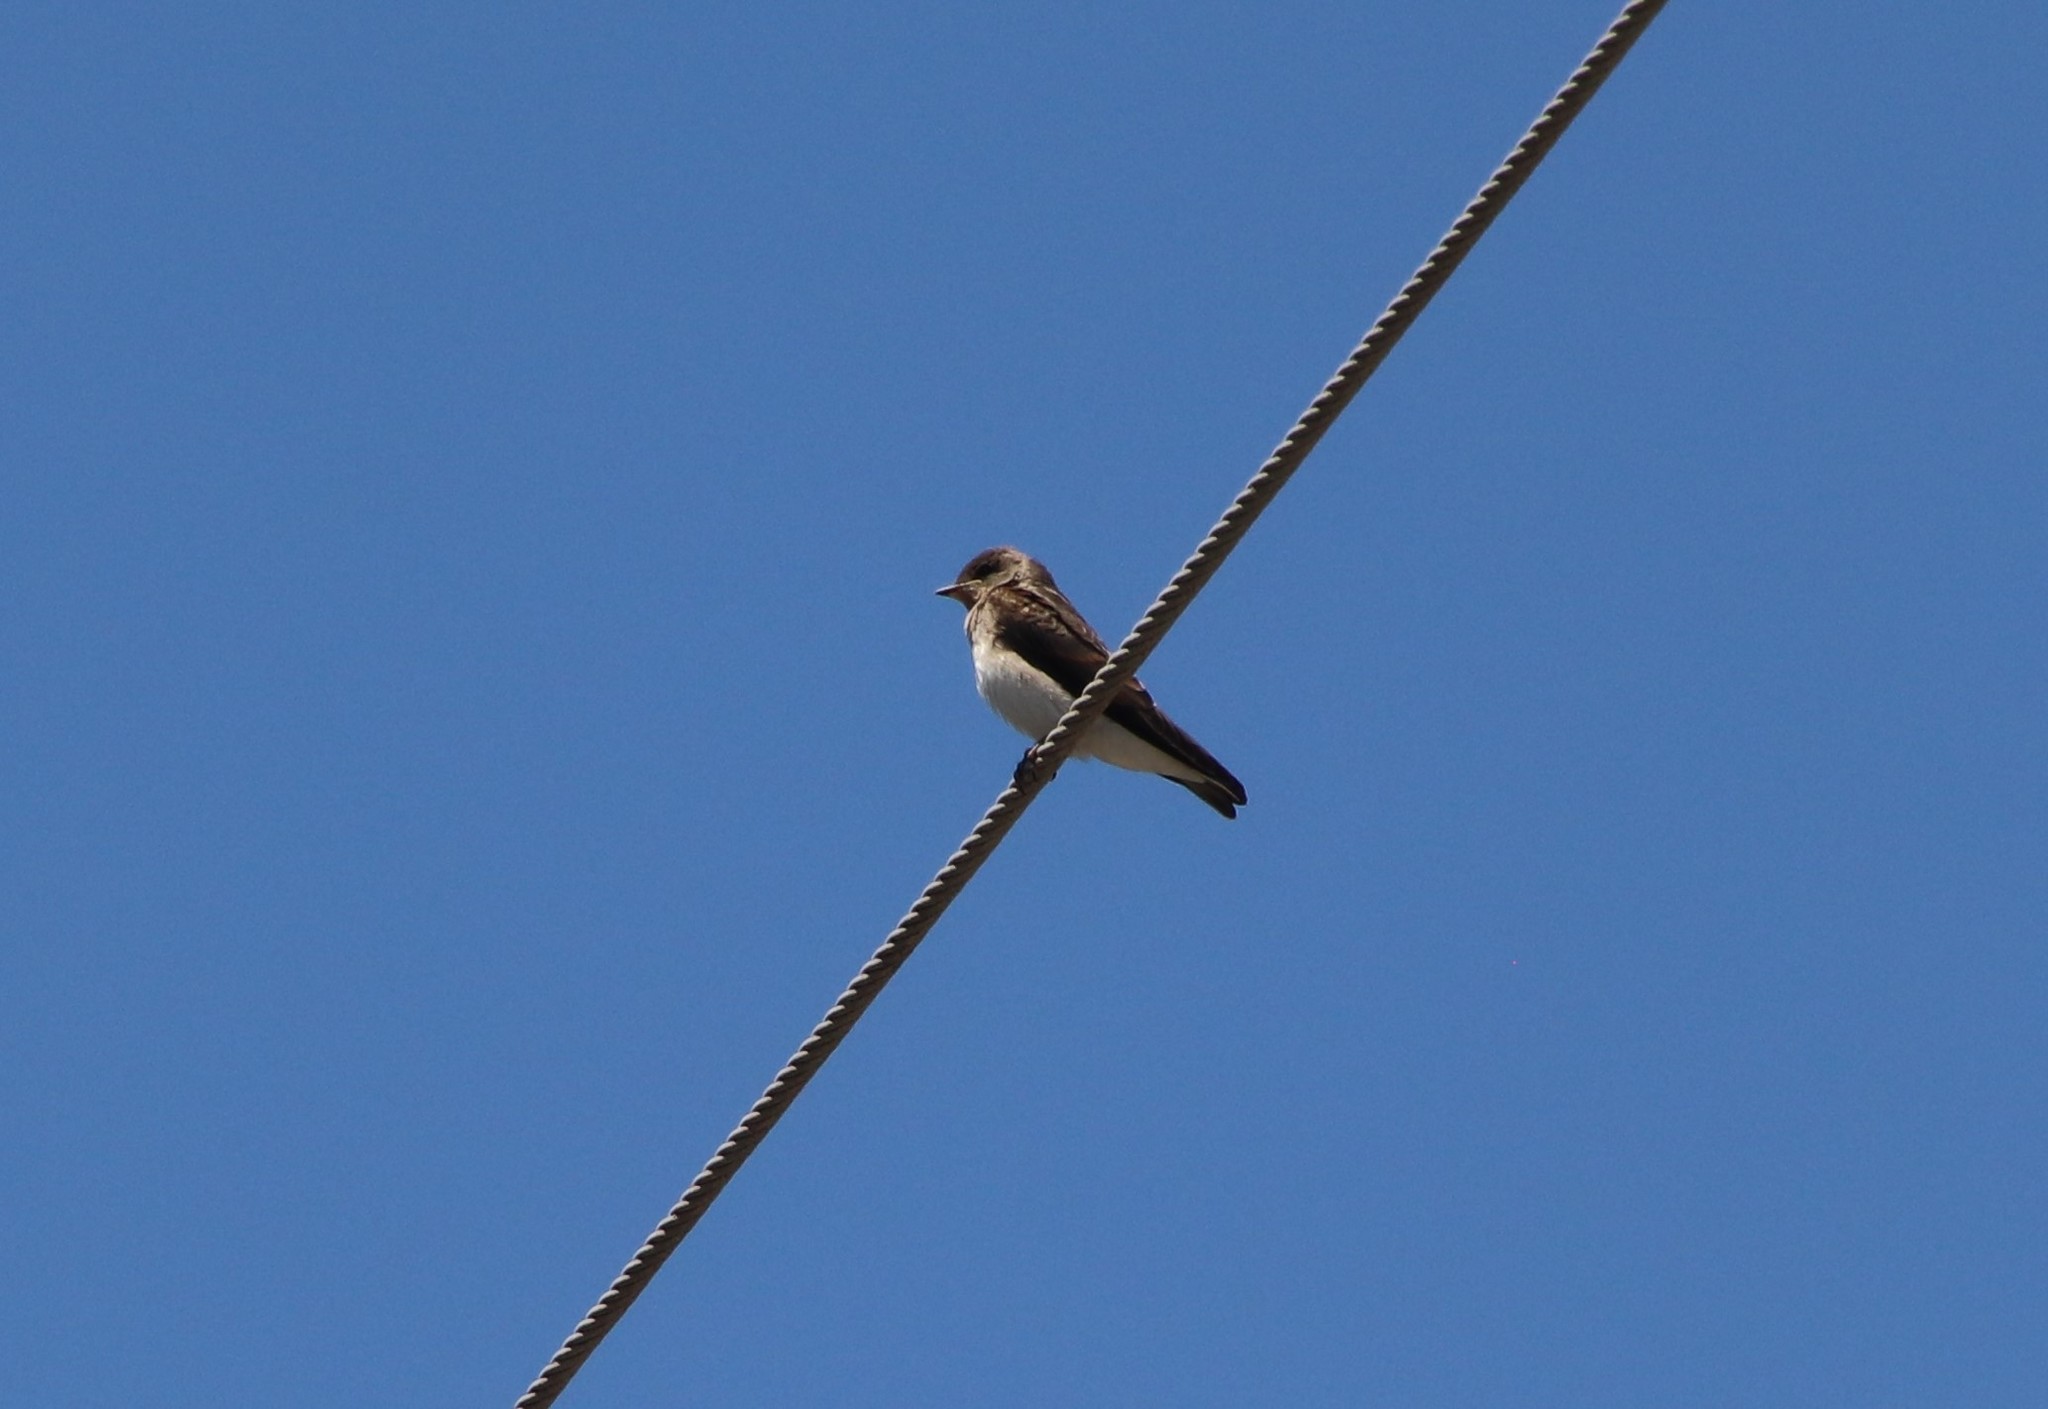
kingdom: Animalia
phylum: Chordata
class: Aves
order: Passeriformes
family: Hirundinidae
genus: Stelgidopteryx
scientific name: Stelgidopteryx serripennis
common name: Northern rough-winged swallow
